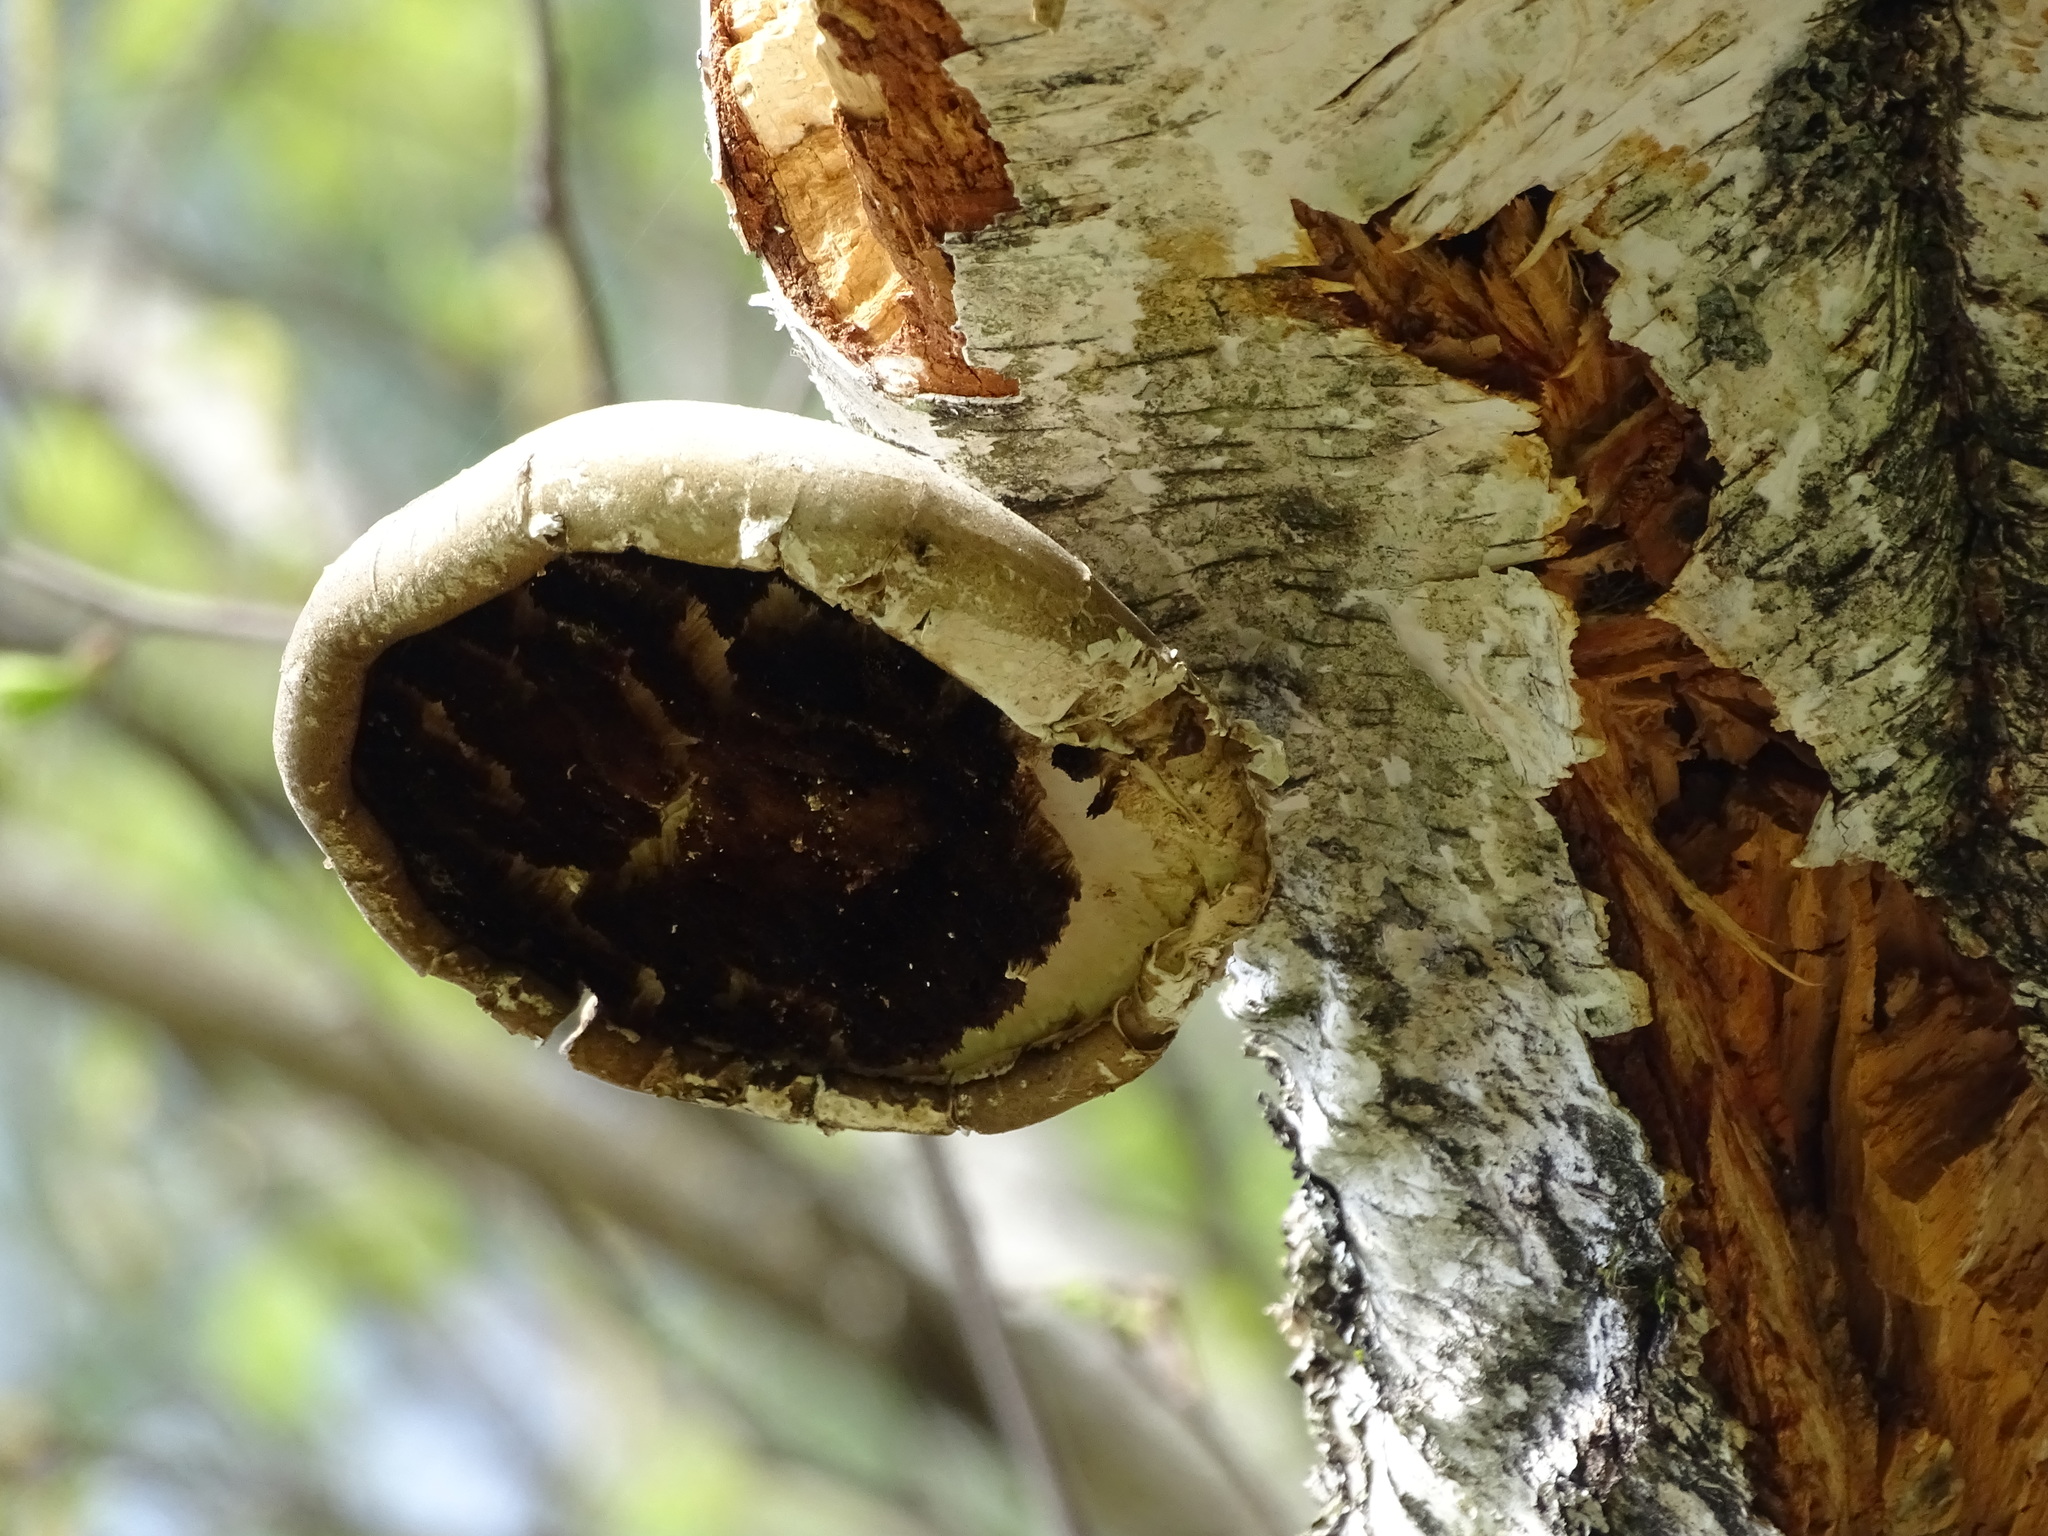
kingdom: Fungi
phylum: Basidiomycota
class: Agaricomycetes
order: Polyporales
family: Fomitopsidaceae
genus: Fomitopsis
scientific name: Fomitopsis betulina
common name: Birch polypore
